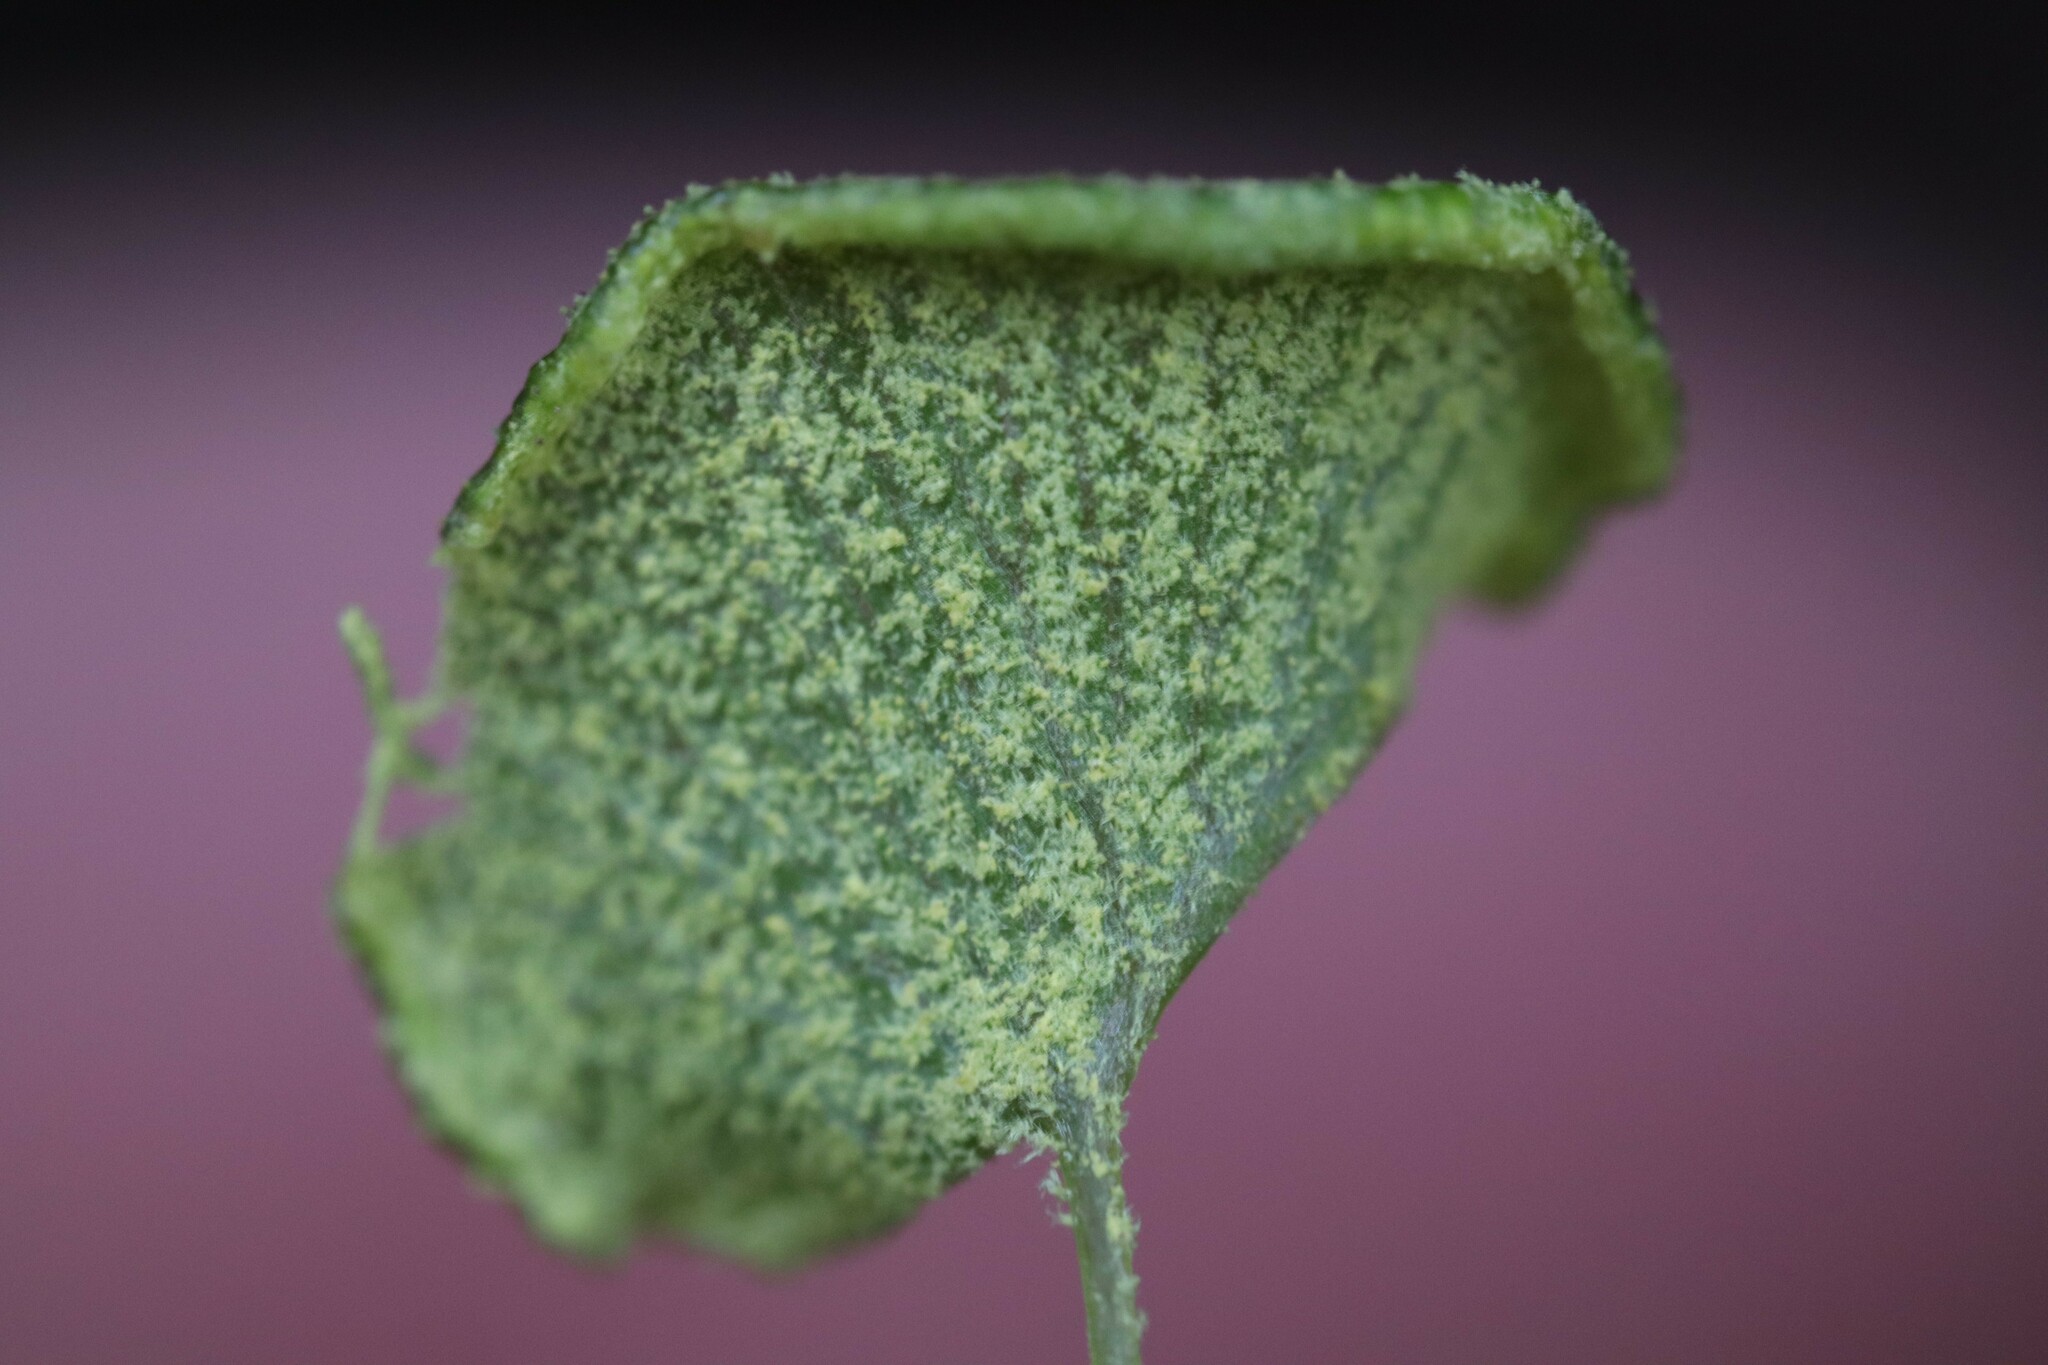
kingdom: Plantae
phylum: Tracheophyta
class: Polypodiopsida
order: Polypodiales
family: Pteridaceae
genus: Adiantum
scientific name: Adiantum sulphureum
